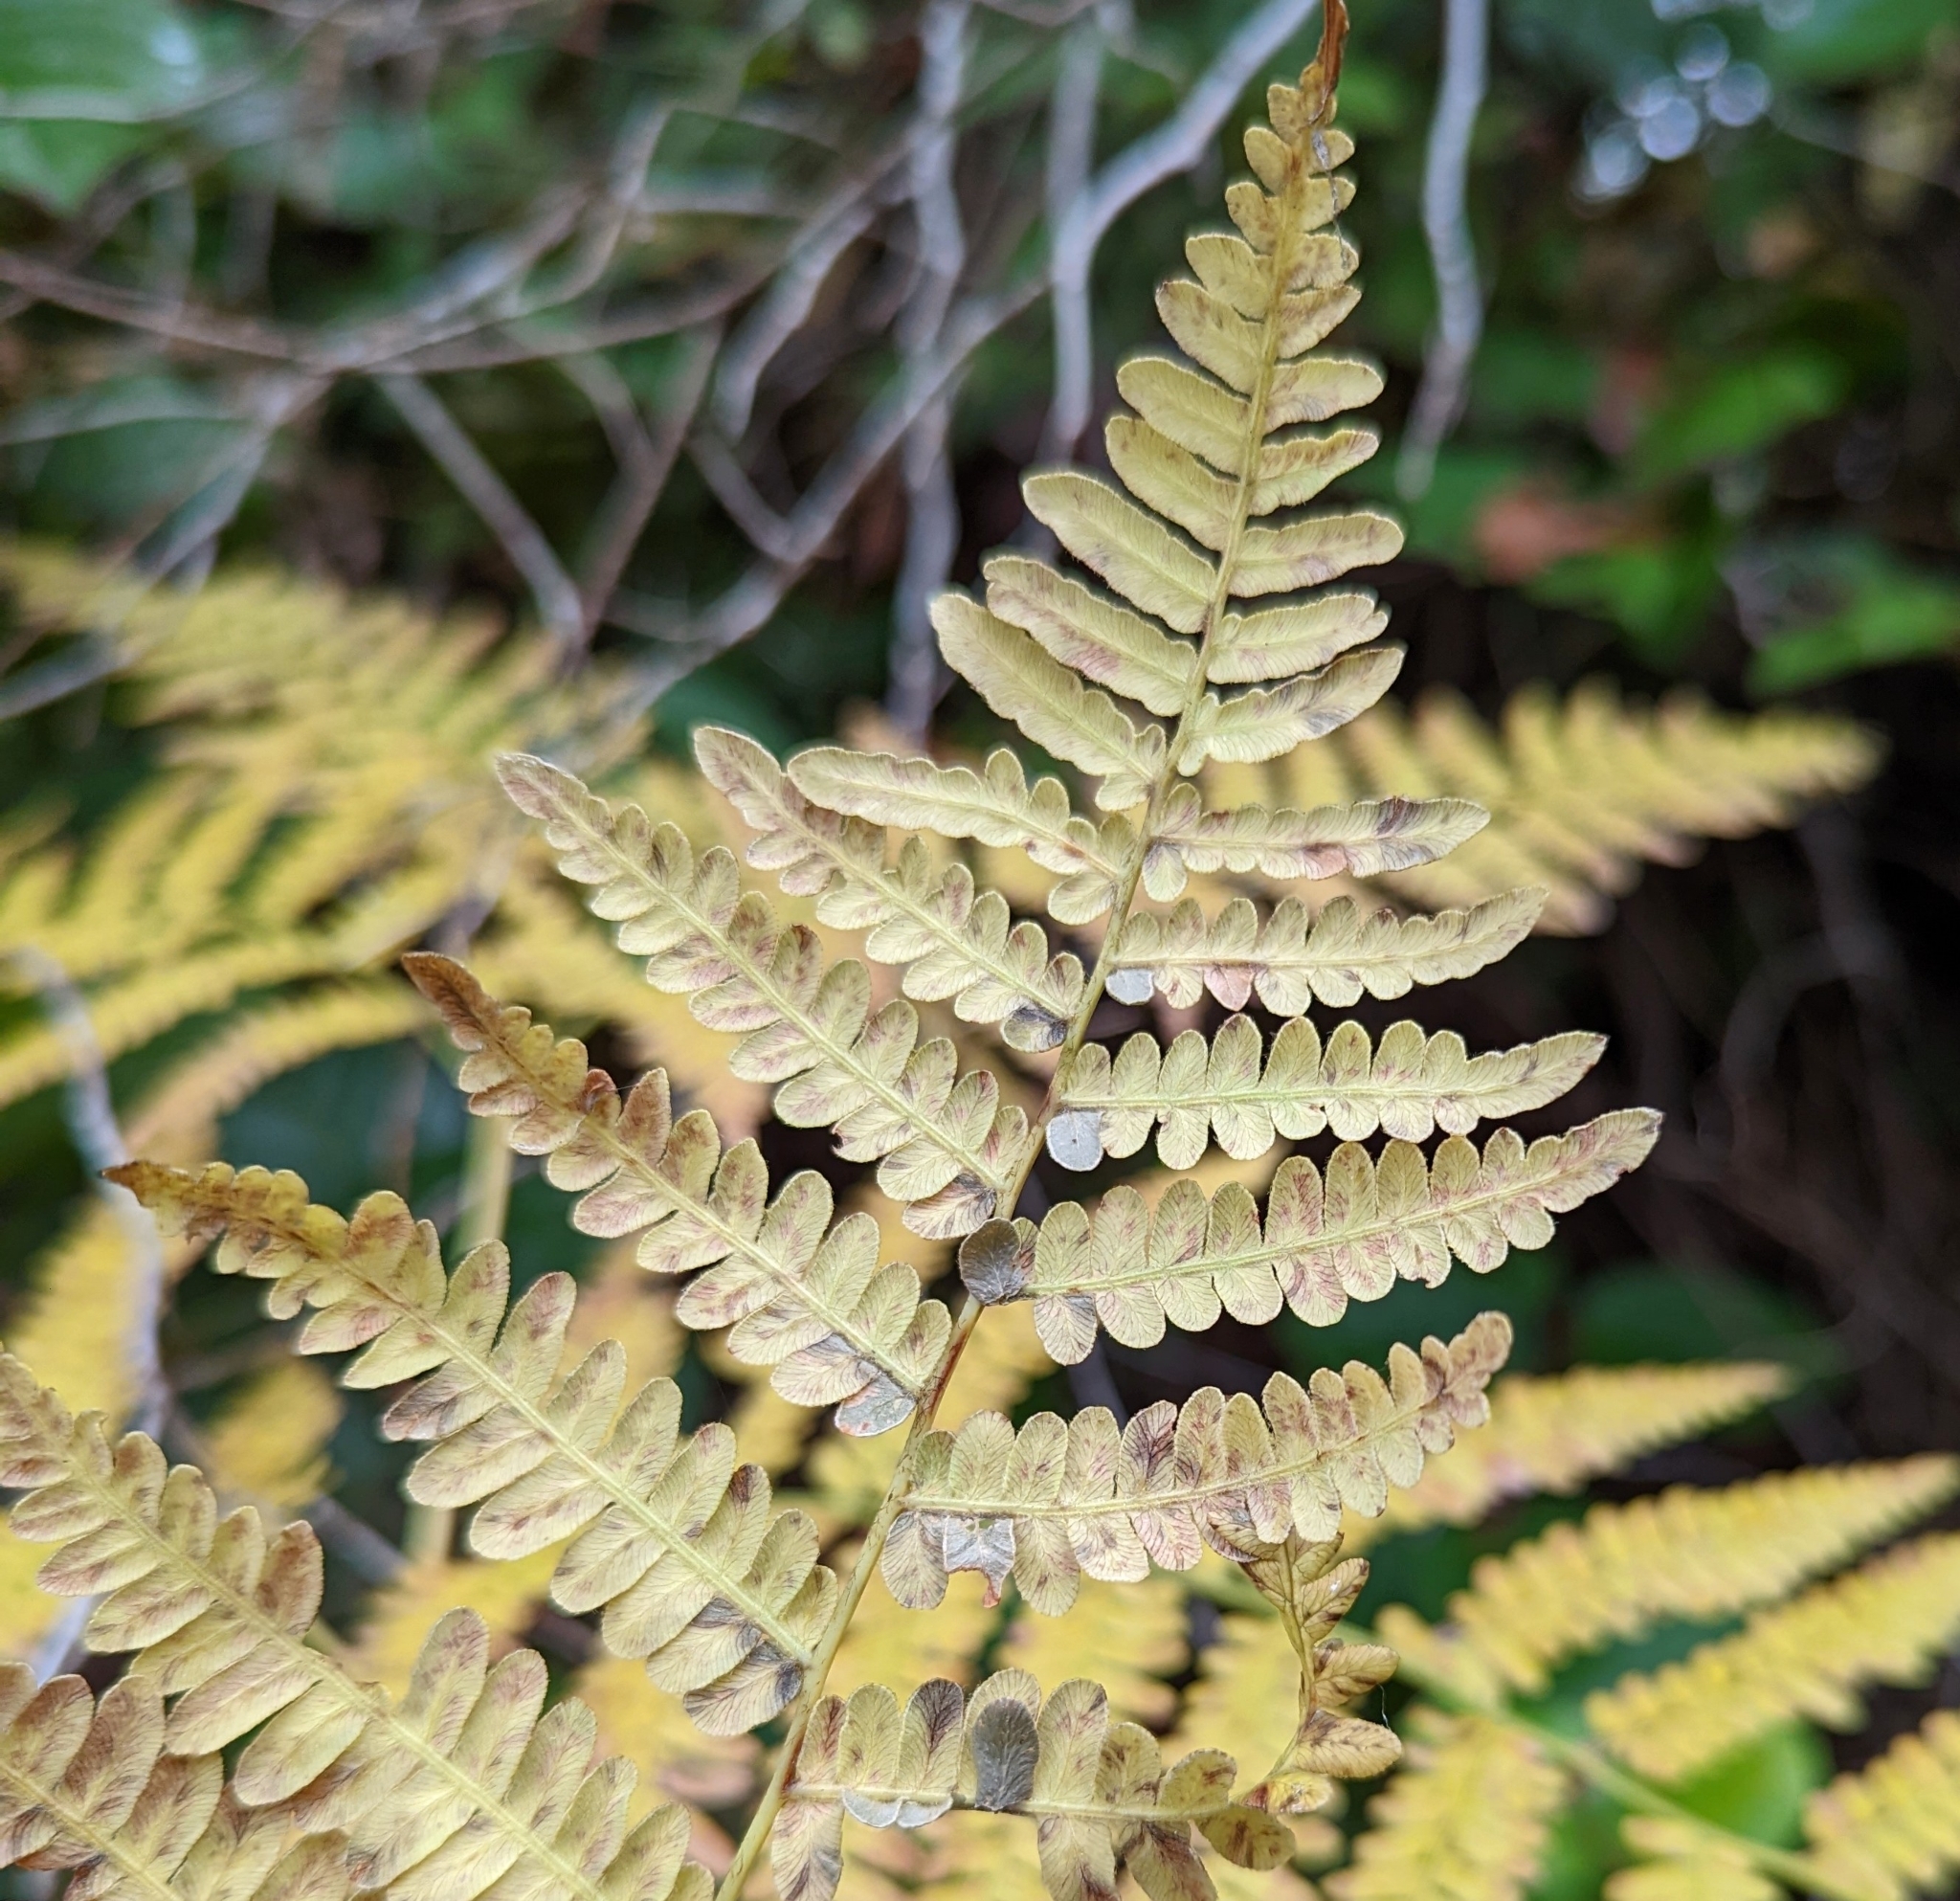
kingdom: Plantae
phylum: Tracheophyta
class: Polypodiopsida
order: Polypodiales
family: Dennstaedtiaceae
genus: Pteridium
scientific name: Pteridium aquilinum
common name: Bracken
